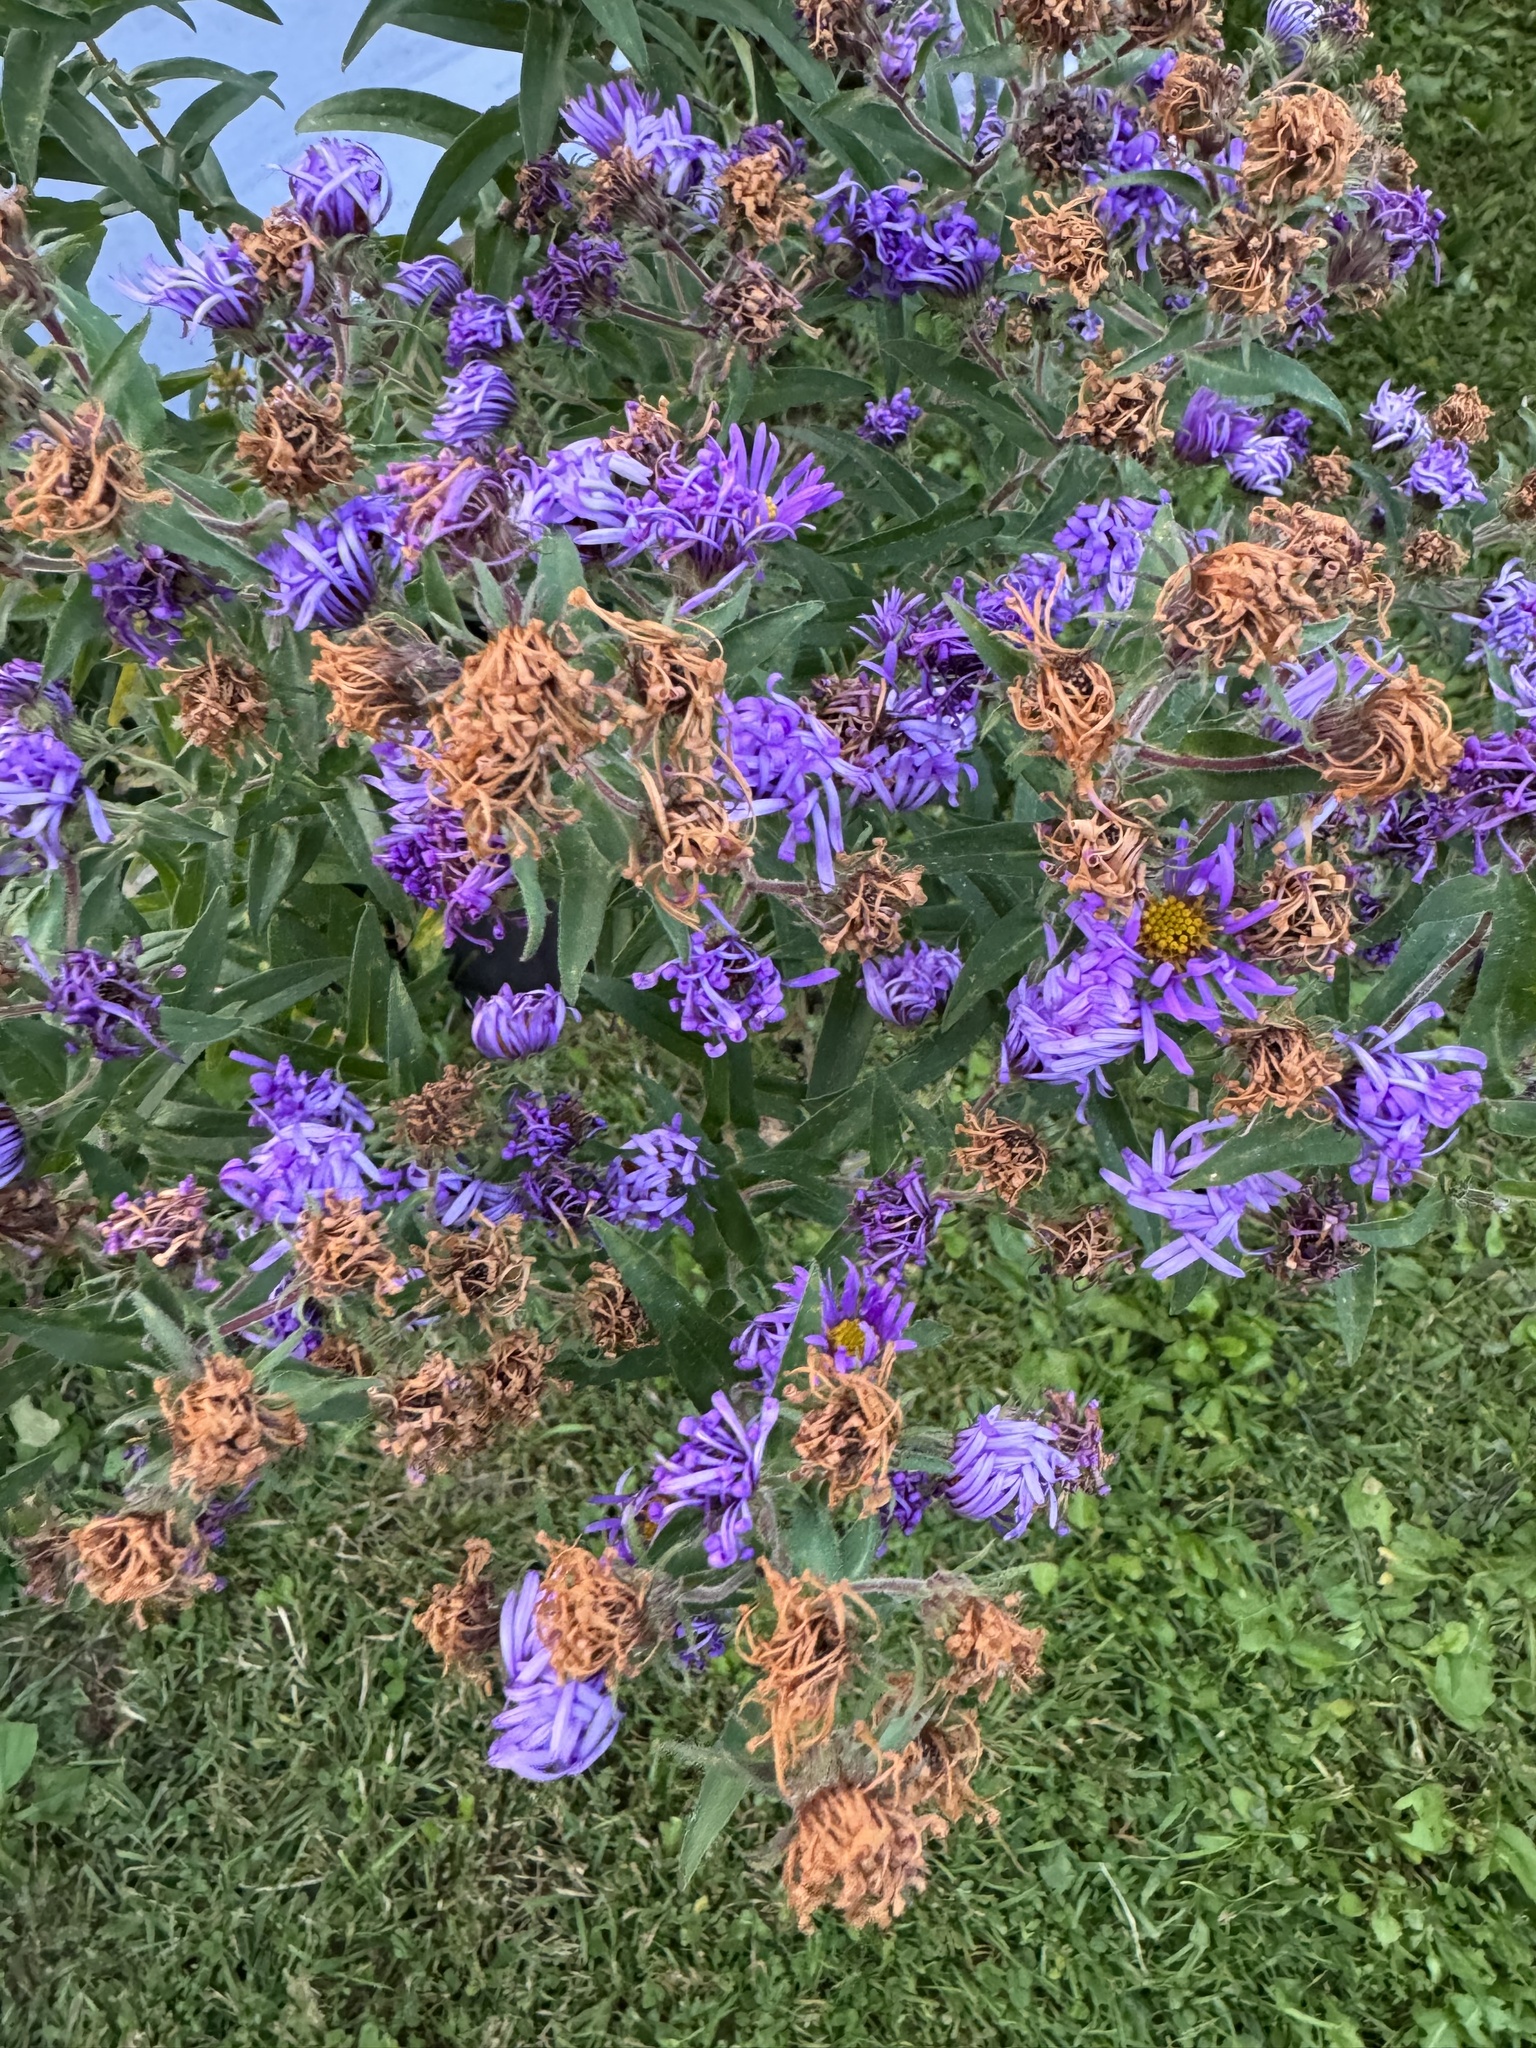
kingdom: Plantae
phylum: Tracheophyta
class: Magnoliopsida
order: Asterales
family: Asteraceae
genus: Symphyotrichum
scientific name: Symphyotrichum novae-angliae
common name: Michaelmas daisy
